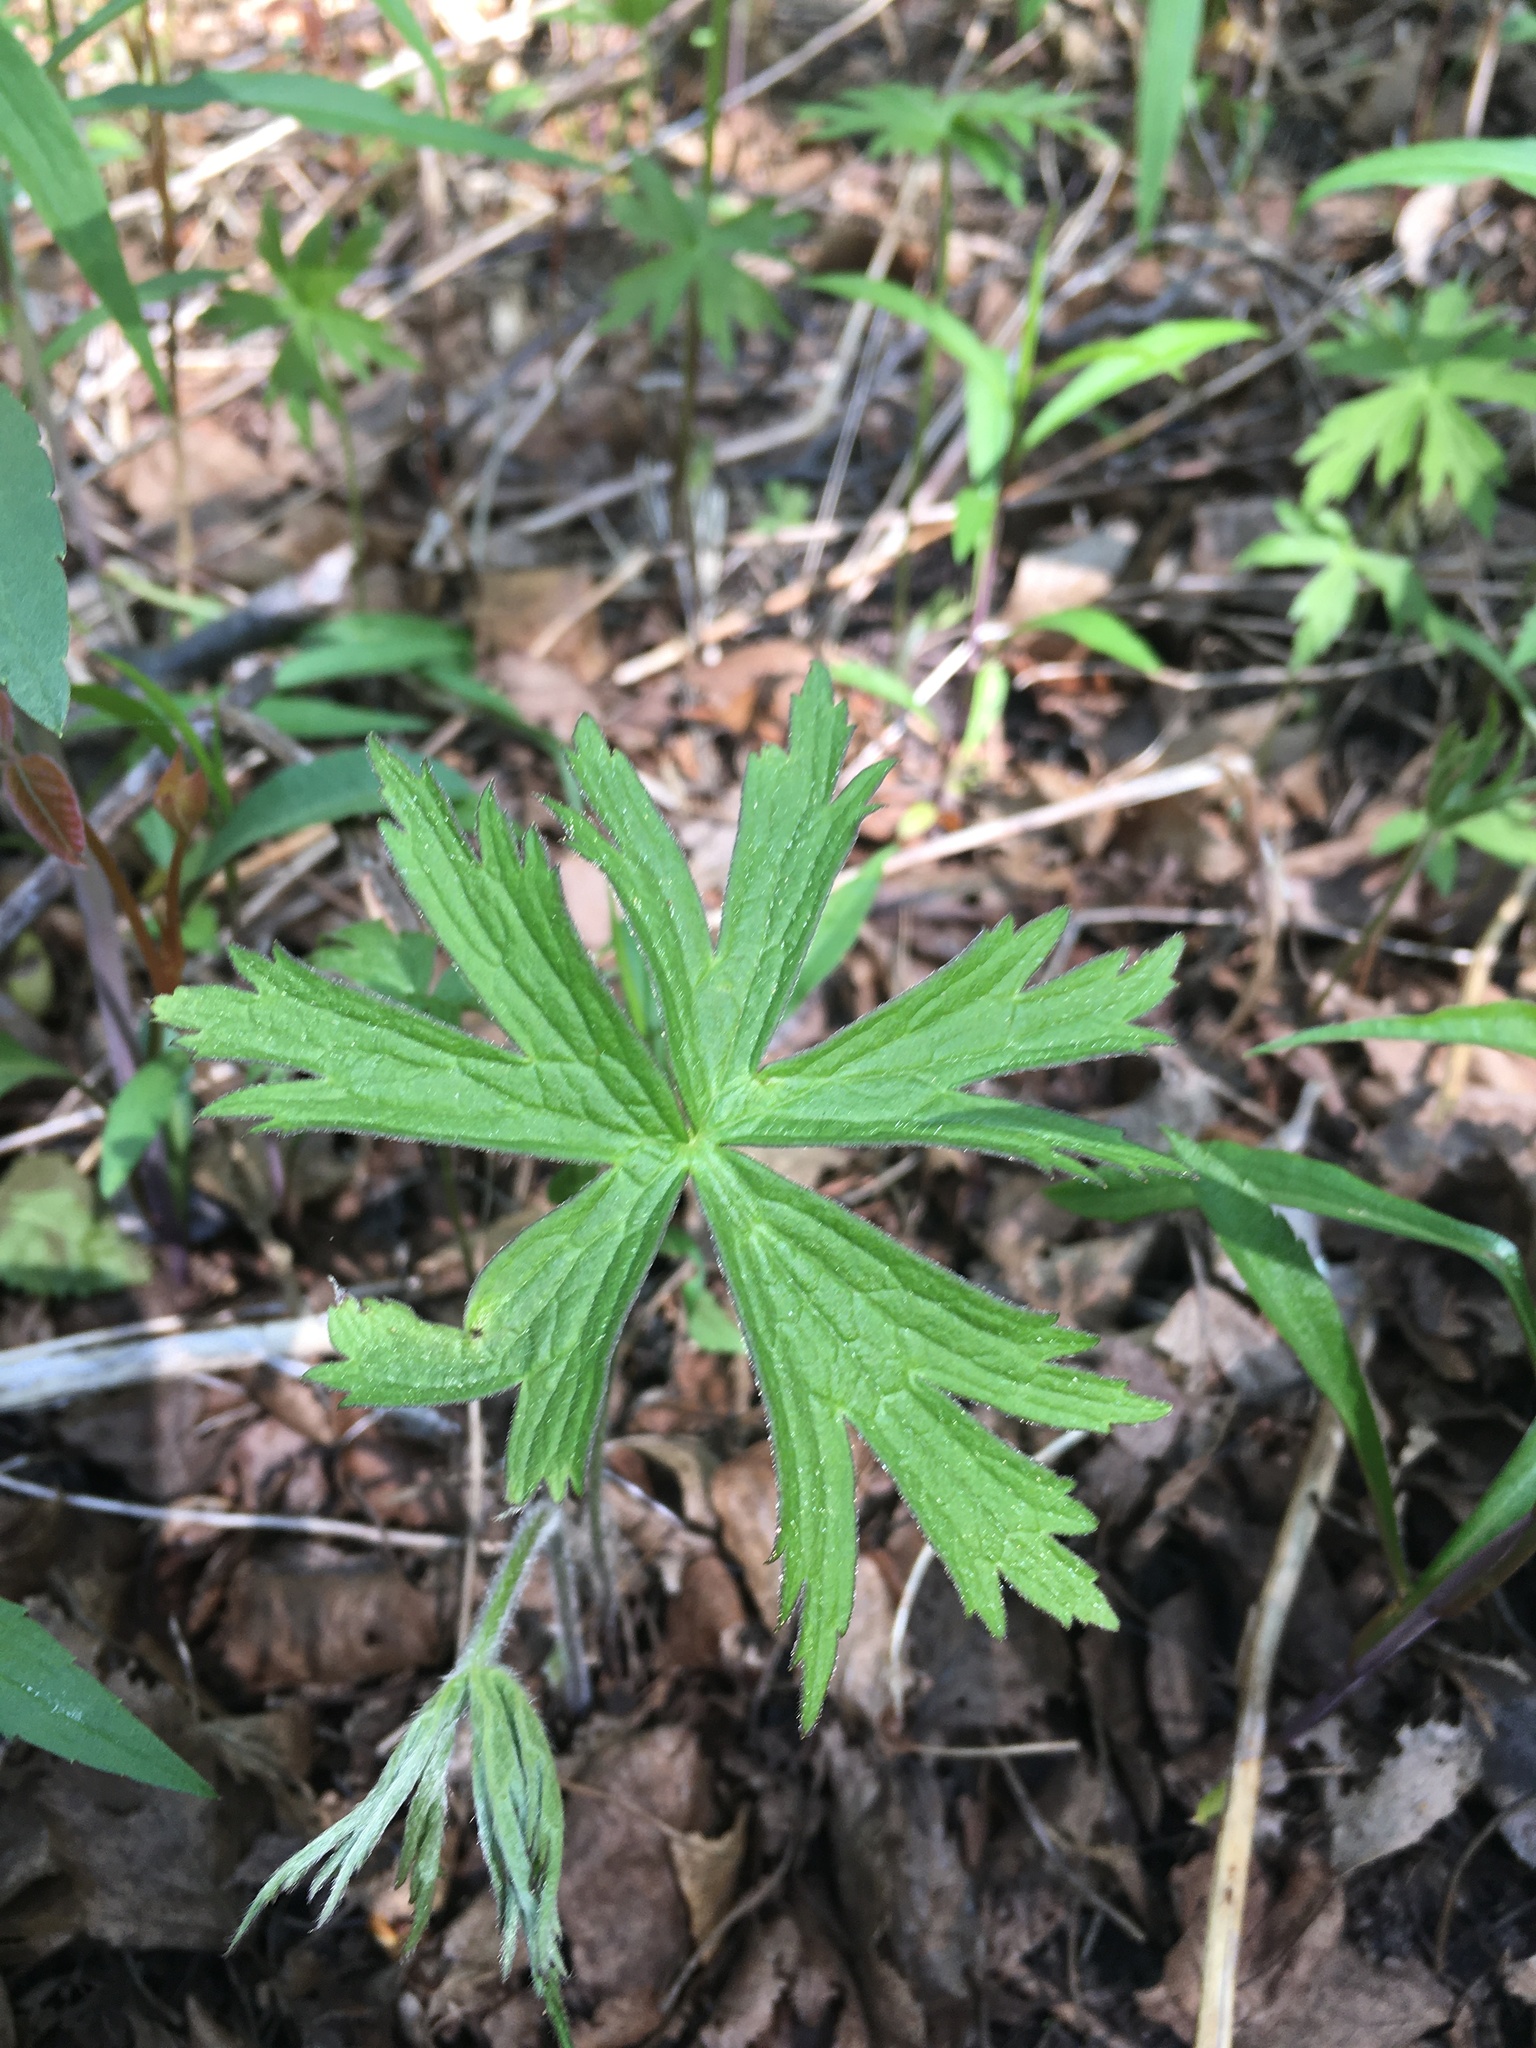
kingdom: Plantae
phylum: Tracheophyta
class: Magnoliopsida
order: Ranunculales
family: Ranunculaceae
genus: Anemonastrum
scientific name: Anemonastrum canadense
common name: Canada anemone
